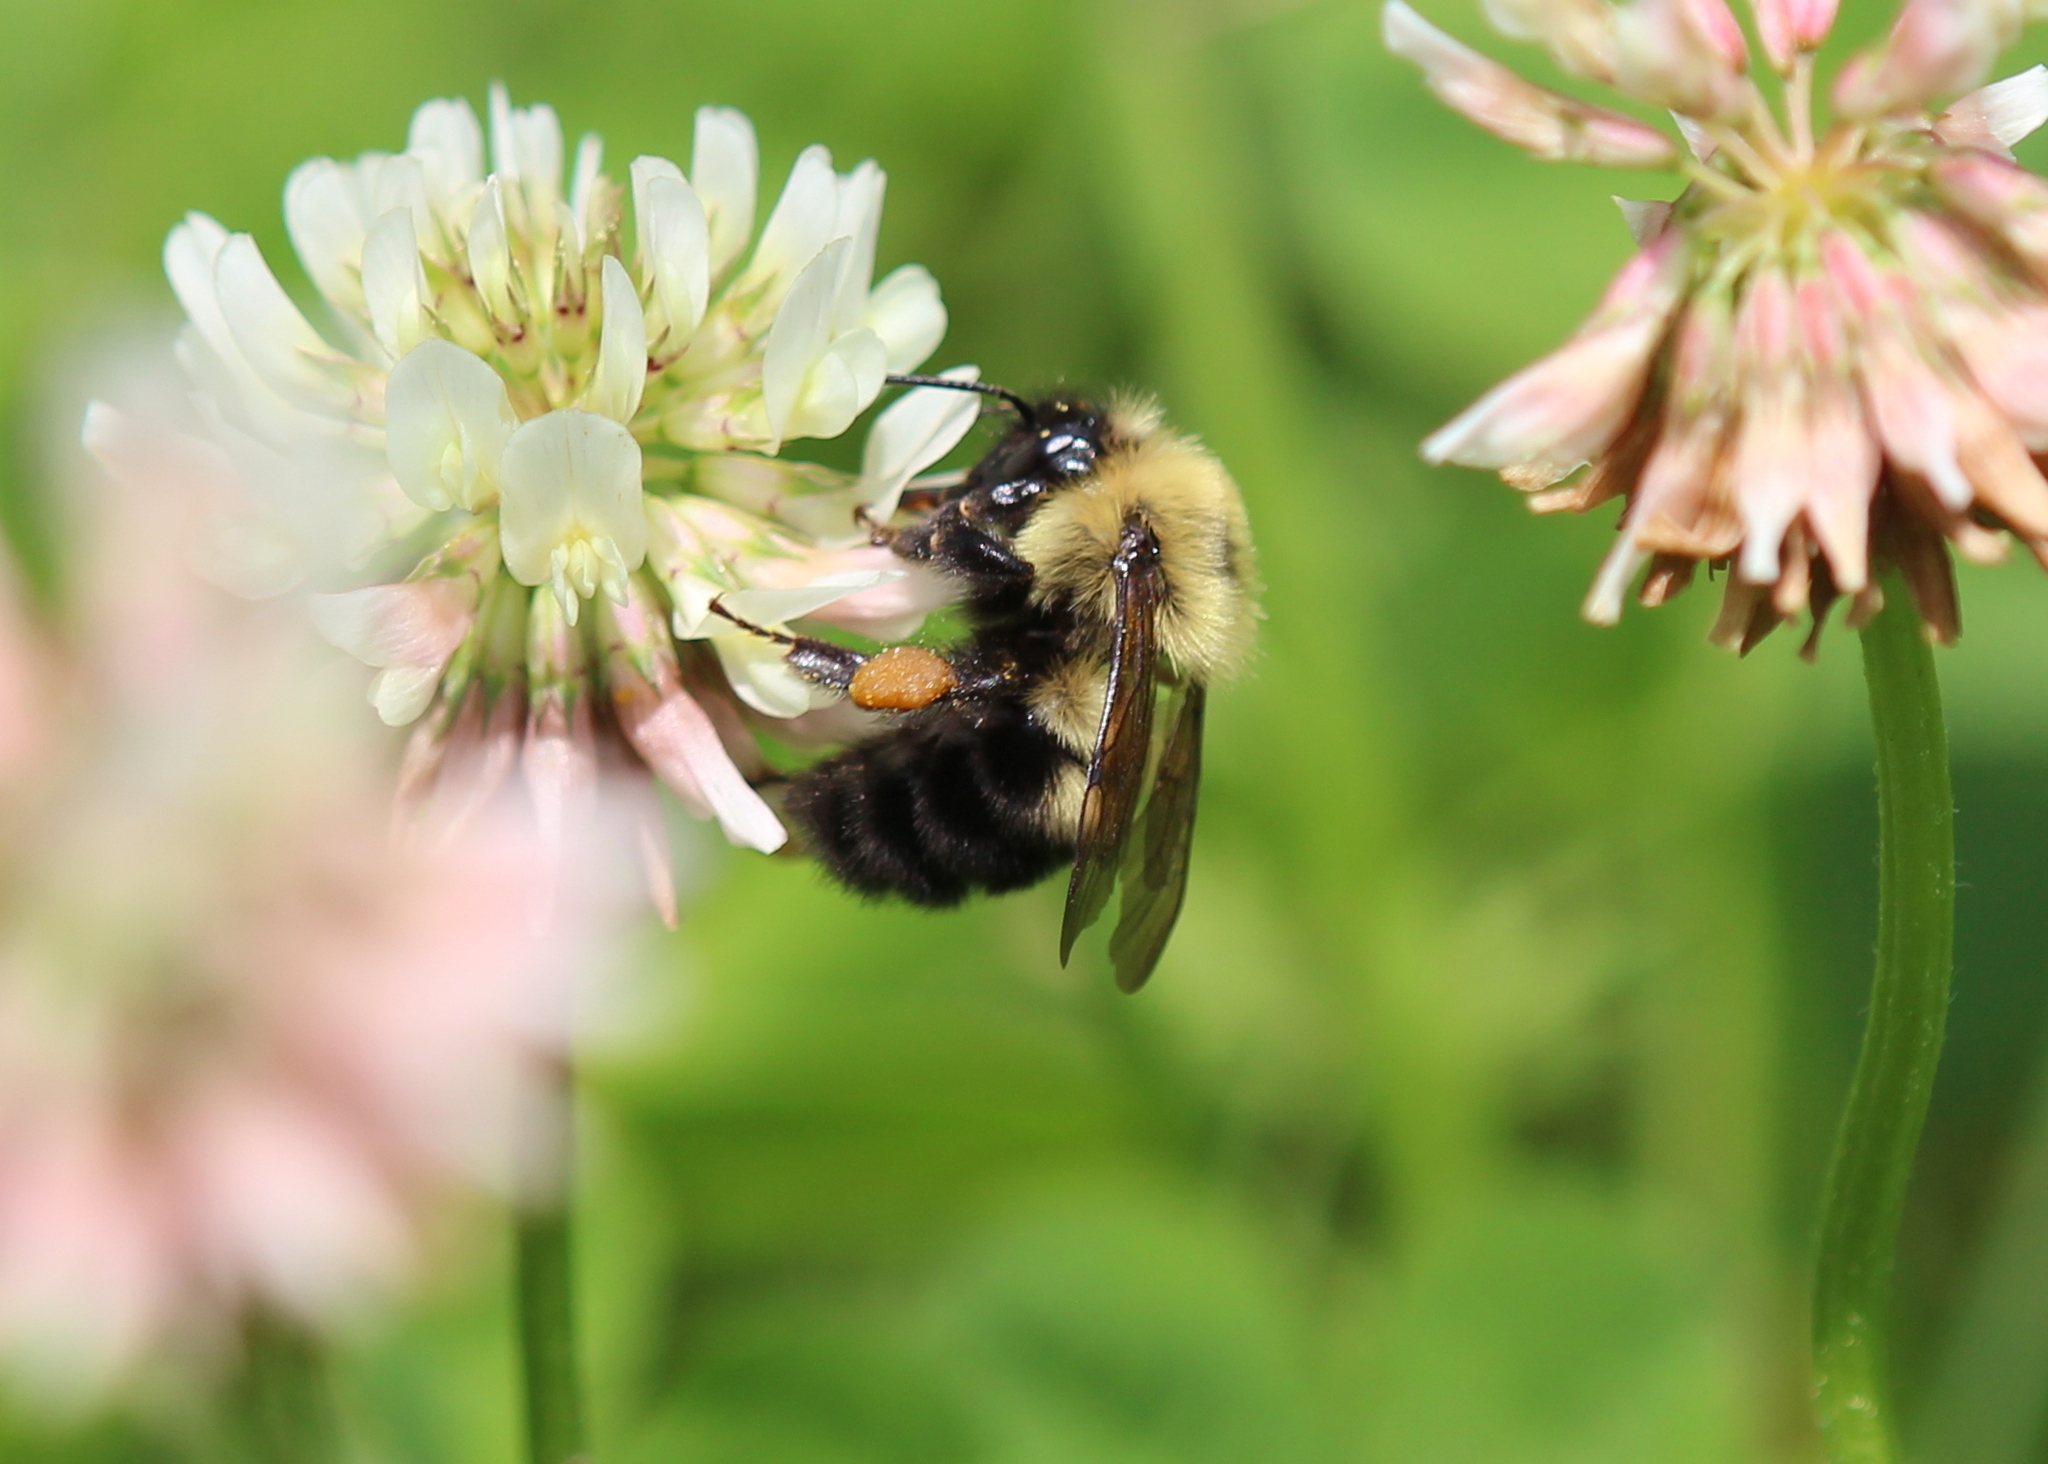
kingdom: Animalia
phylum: Arthropoda
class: Insecta
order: Hymenoptera
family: Apidae
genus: Bombus
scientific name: Bombus bimaculatus
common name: Two-spotted bumble bee
